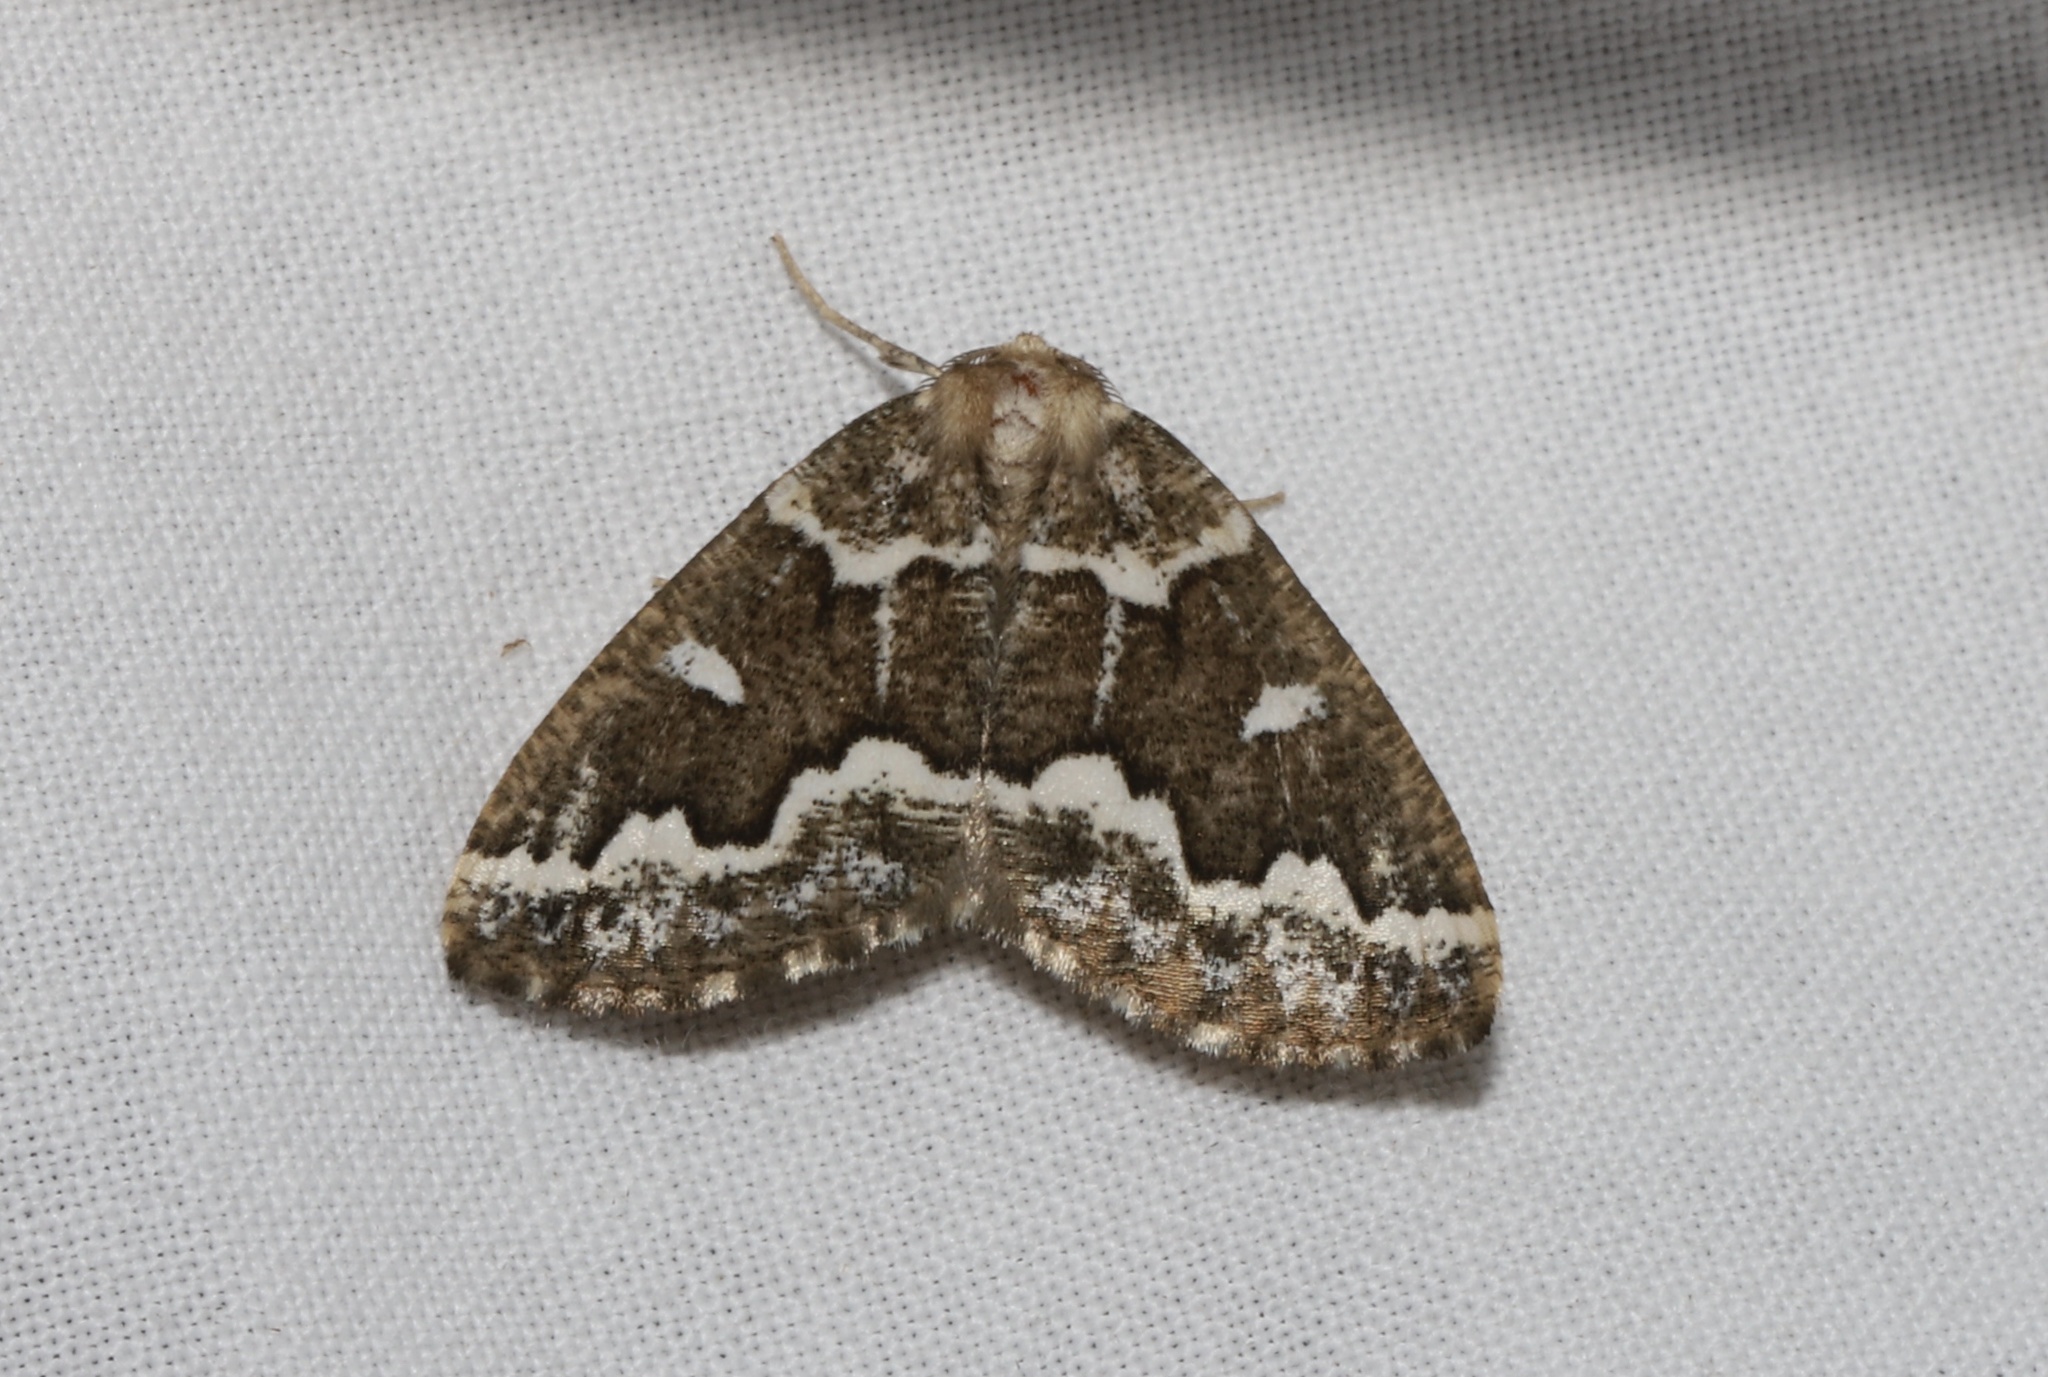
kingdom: Animalia
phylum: Arthropoda
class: Insecta
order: Lepidoptera
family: Geometridae
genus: Caripeta
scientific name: Caripeta divisata
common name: Gray spruce looper
